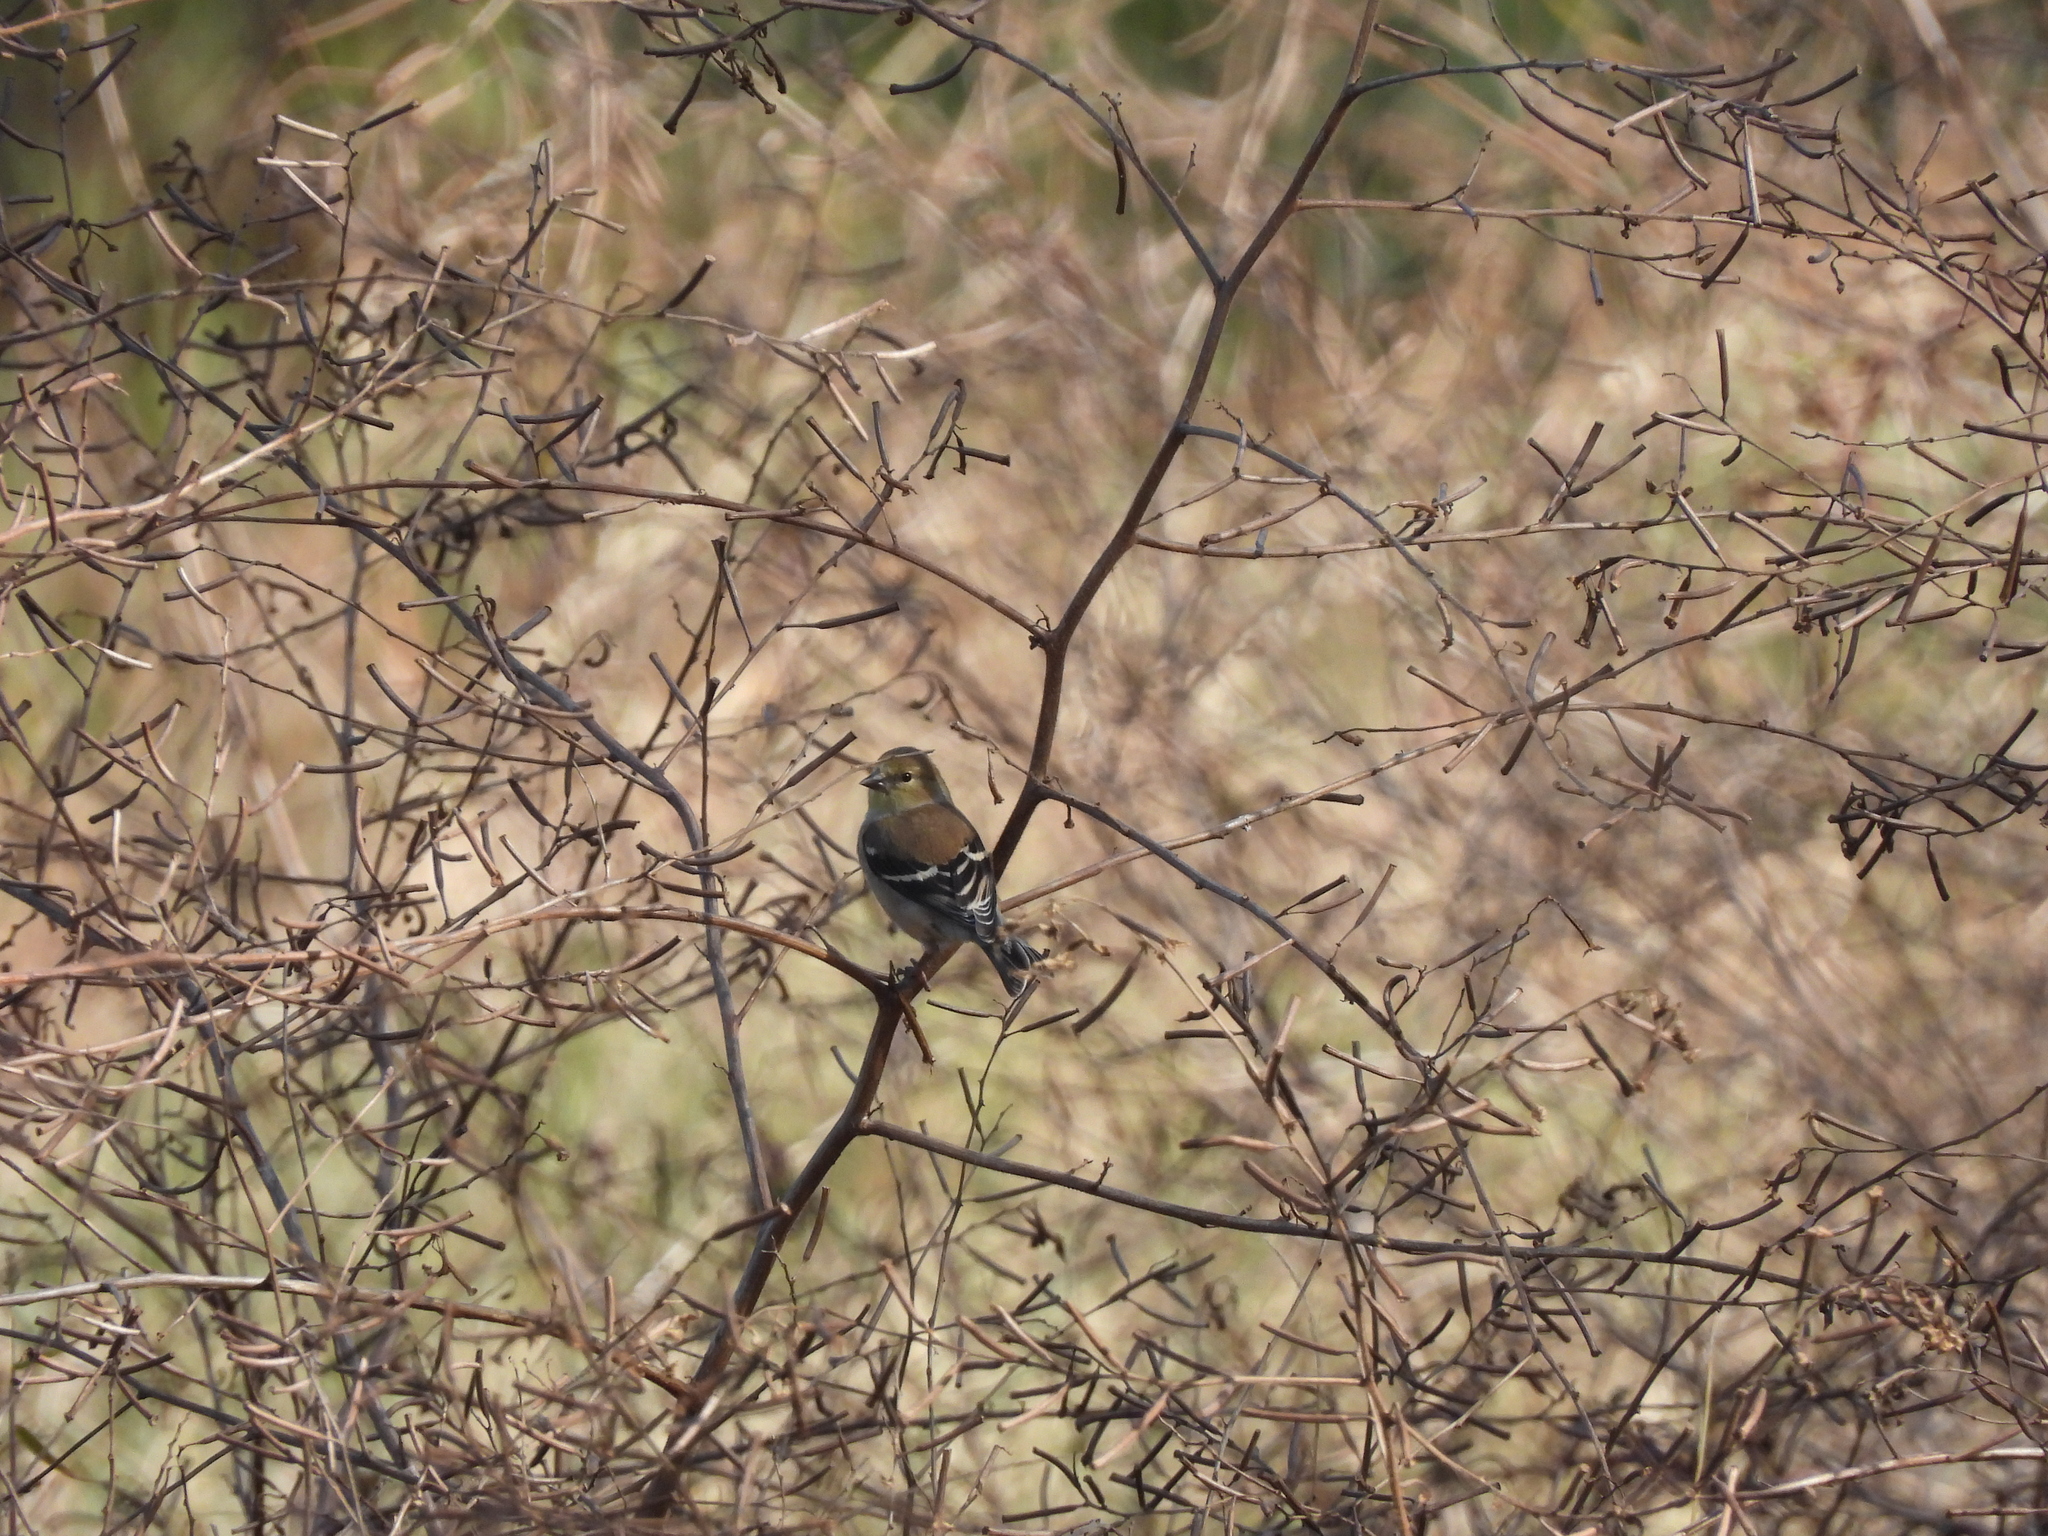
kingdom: Animalia
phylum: Chordata
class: Aves
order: Passeriformes
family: Fringillidae
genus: Spinus
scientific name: Spinus tristis
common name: American goldfinch
